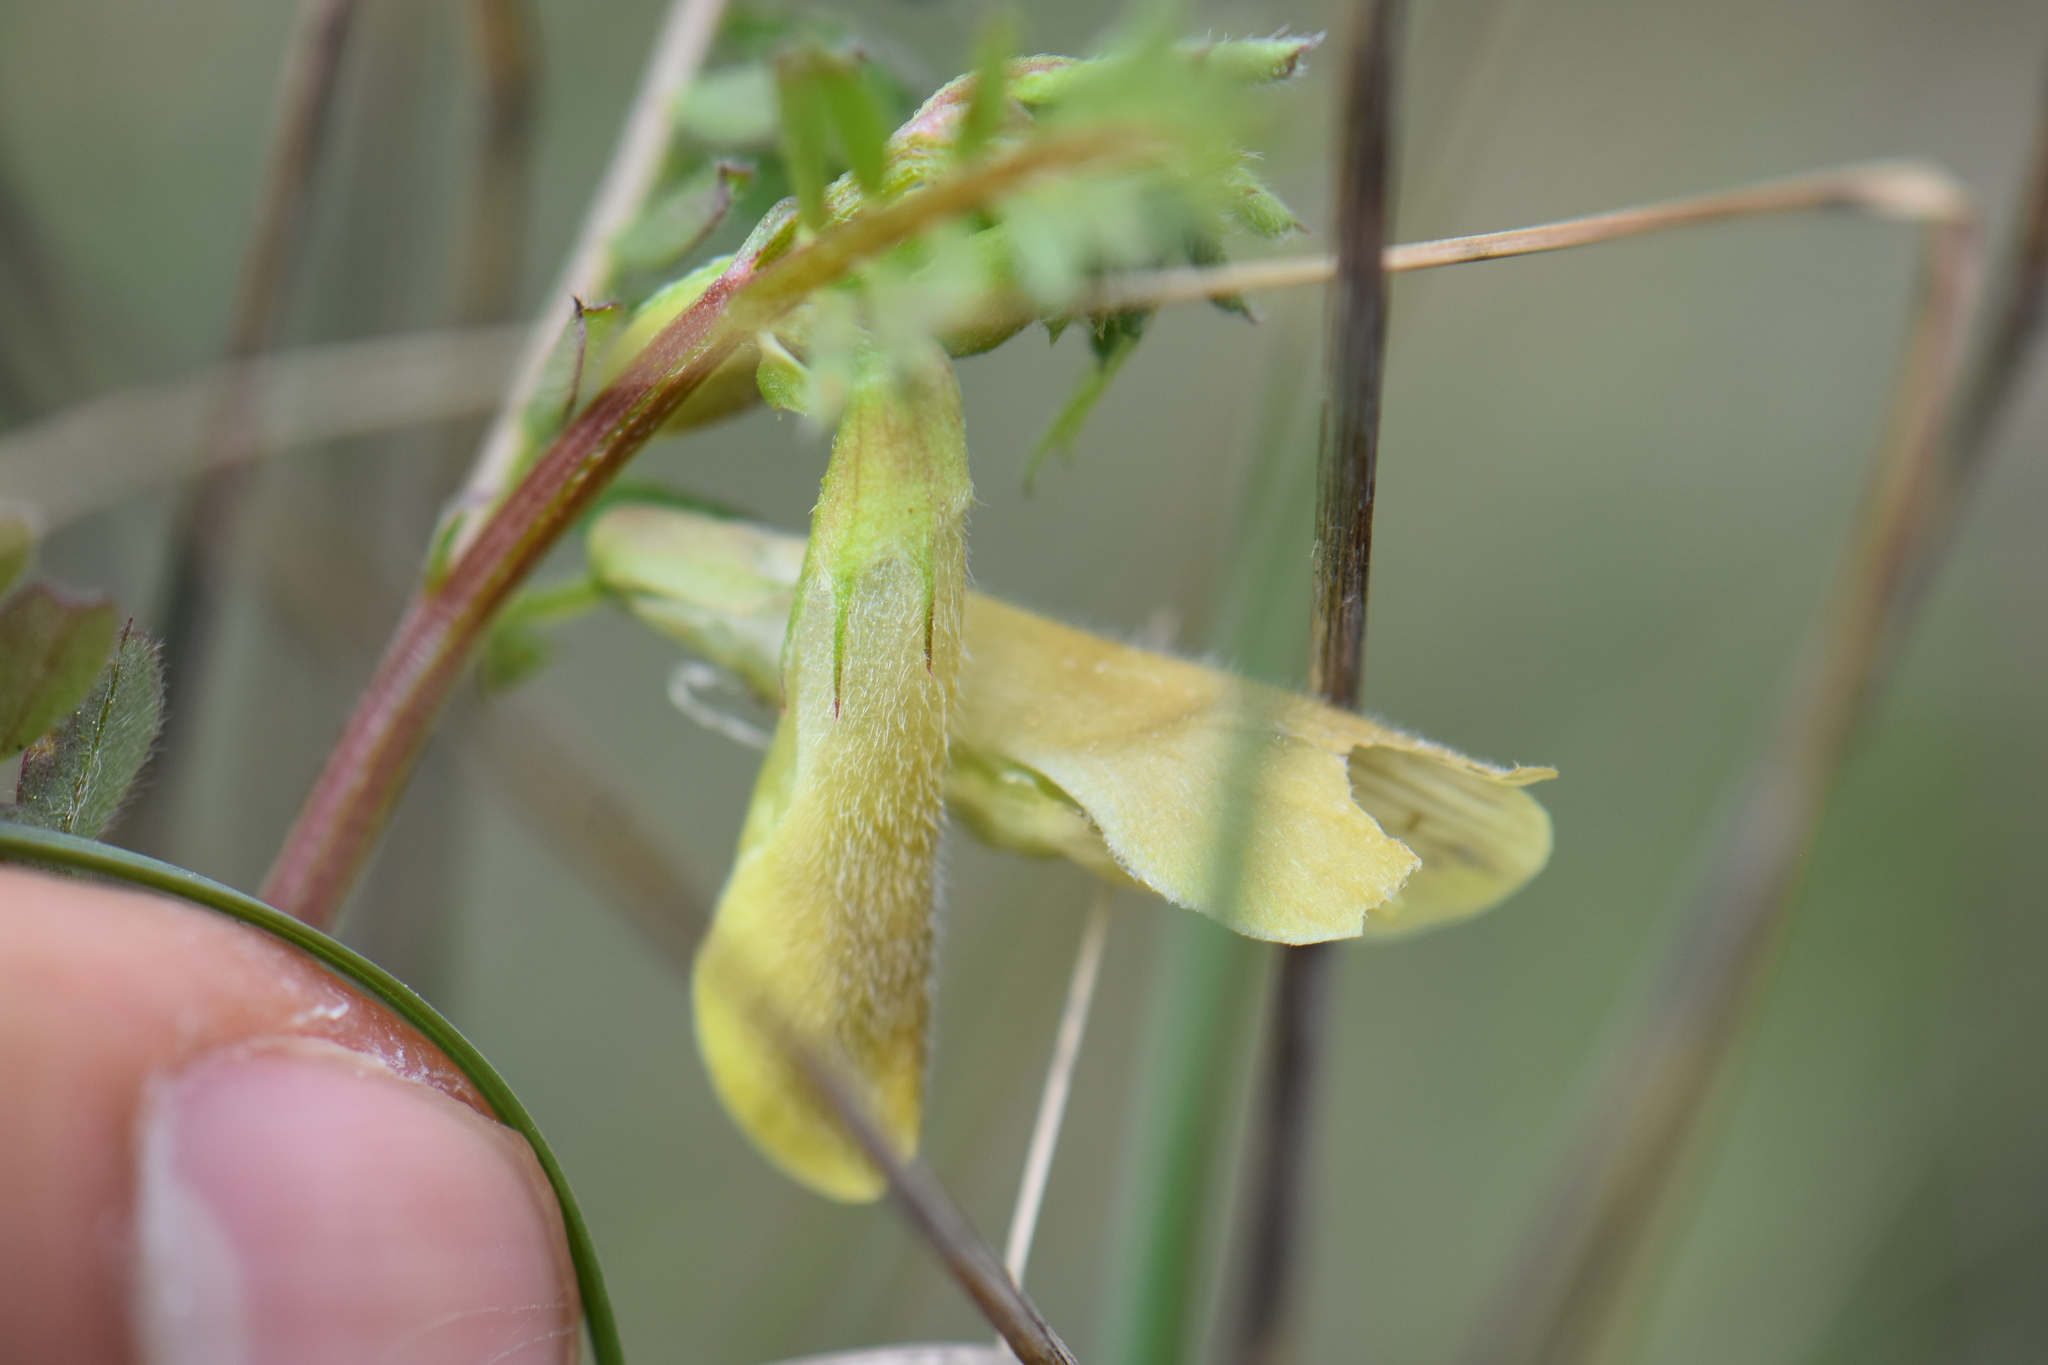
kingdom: Plantae
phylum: Tracheophyta
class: Magnoliopsida
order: Fabales
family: Fabaceae
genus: Vicia
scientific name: Vicia hybrida
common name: Hairy yellow vetch
